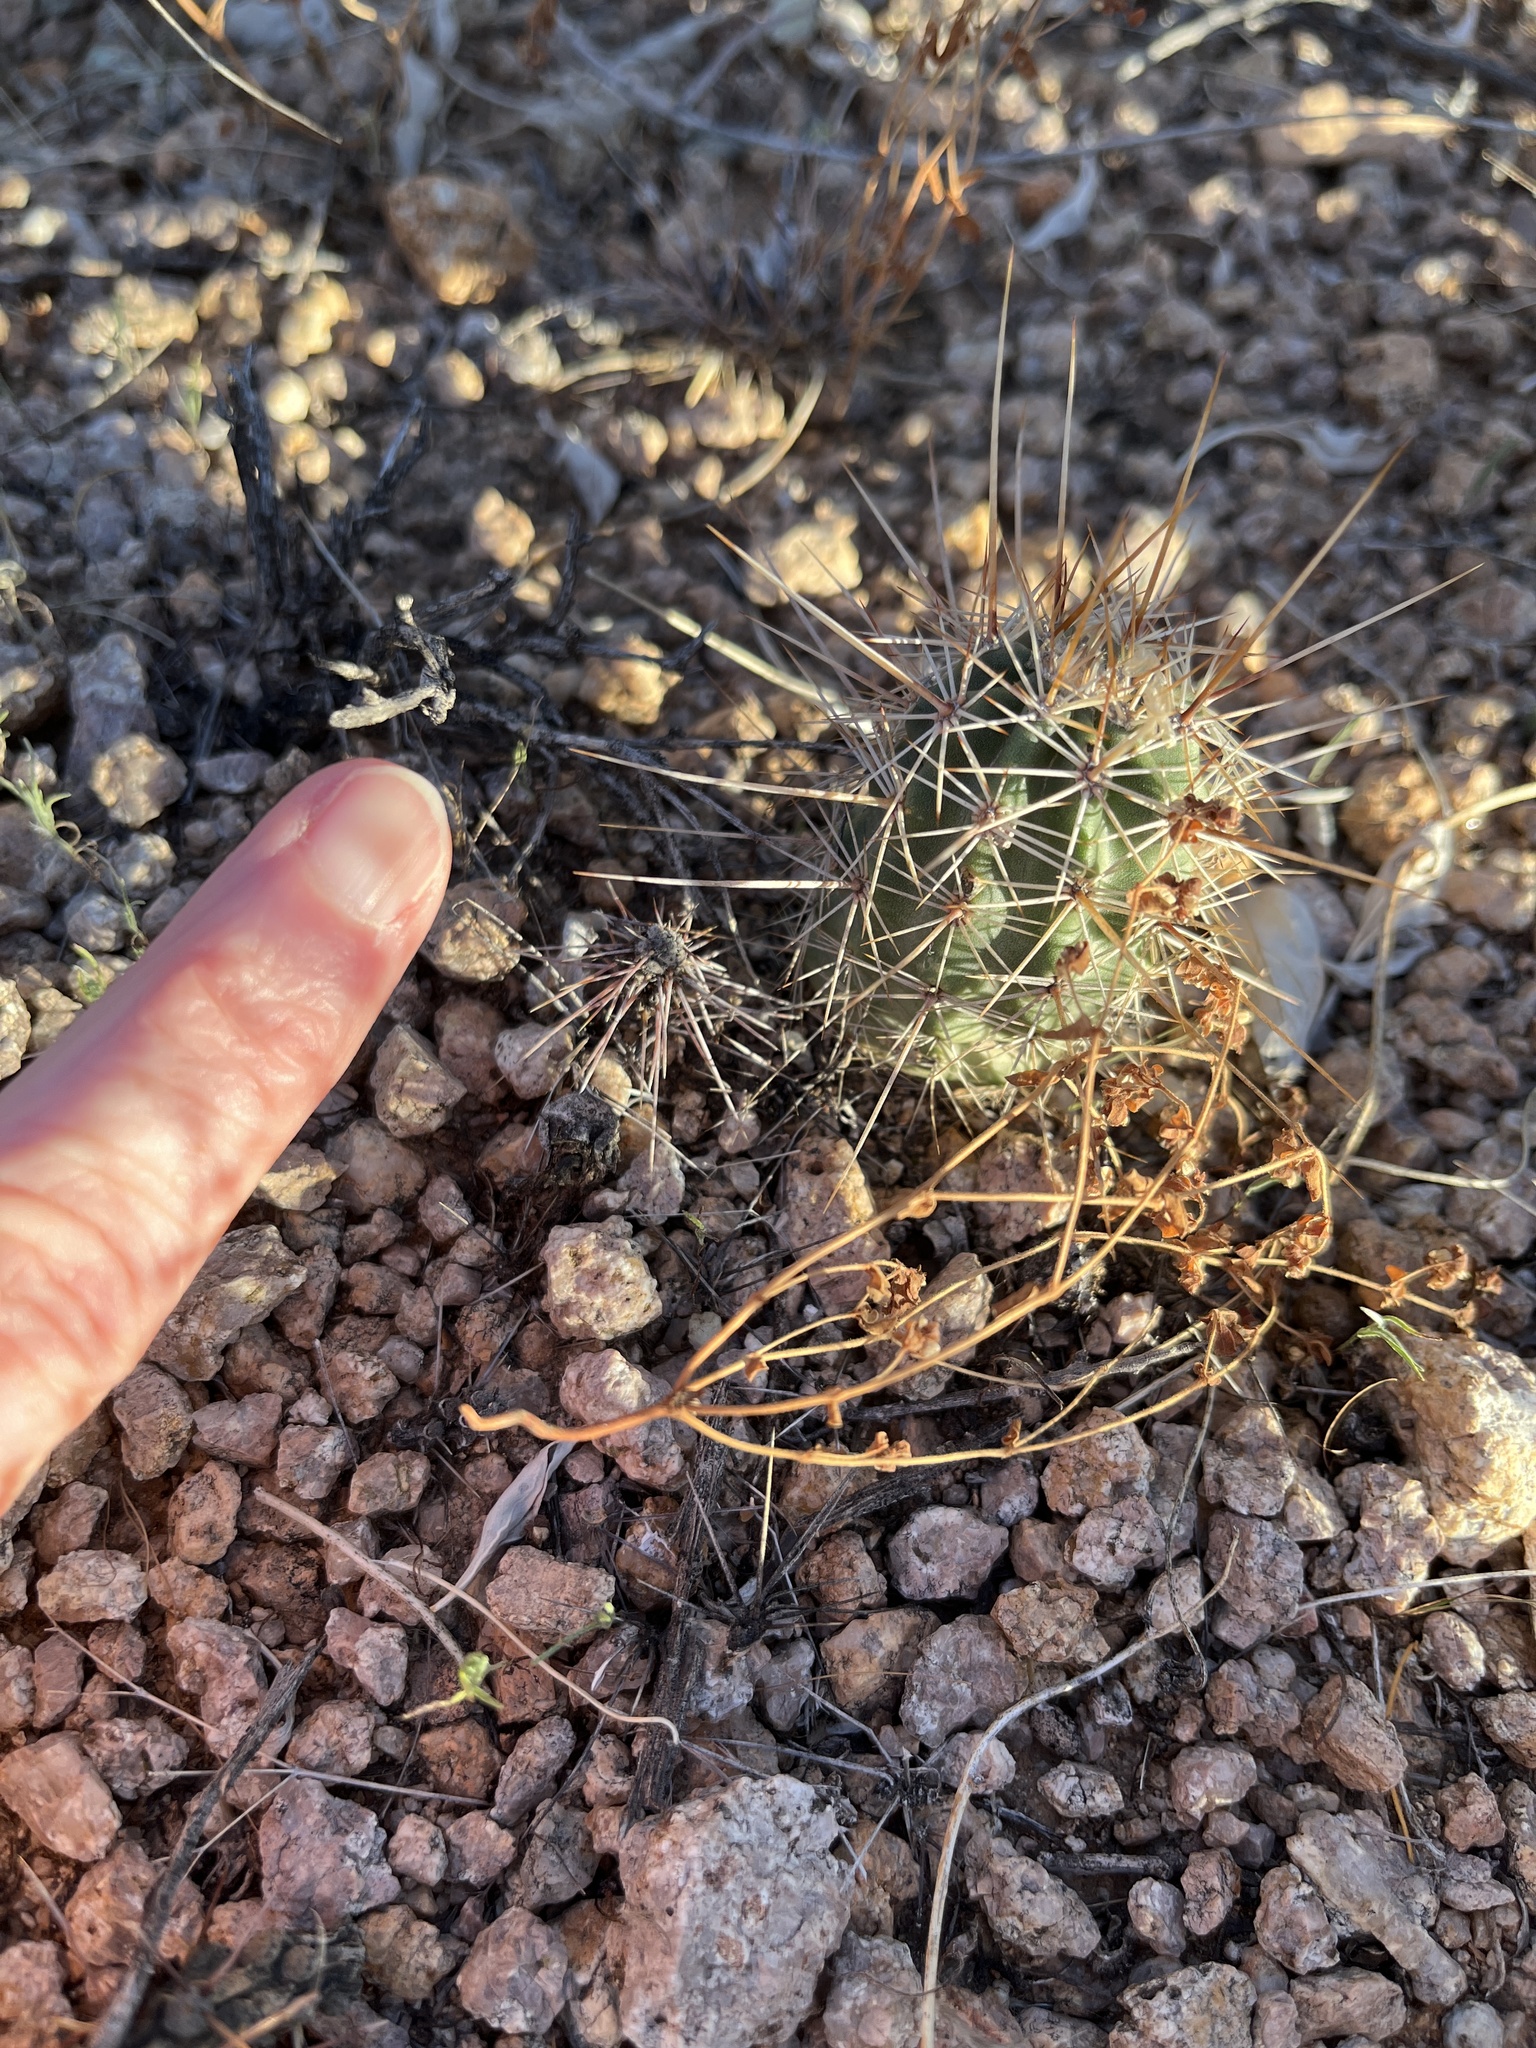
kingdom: Plantae
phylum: Tracheophyta
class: Magnoliopsida
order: Caryophyllales
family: Cactaceae
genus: Echinocereus
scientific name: Echinocereus fasciculatus
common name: Bundle hedgehog
